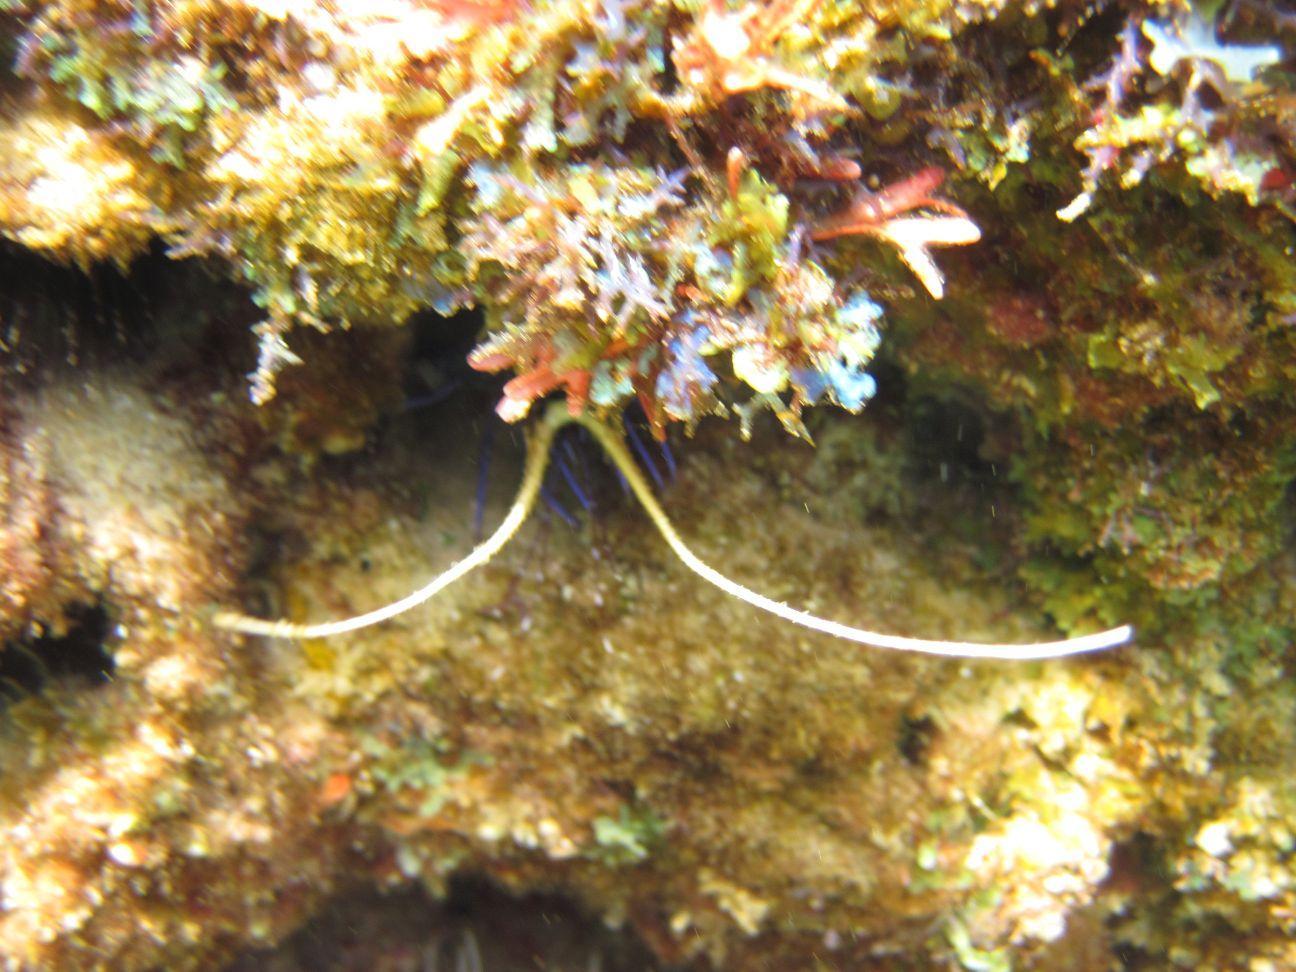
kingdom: Animalia
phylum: Arthropoda
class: Malacostraca
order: Decapoda
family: Palinuridae
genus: Panulirus
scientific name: Panulirus versicolor
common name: Painted spiny lobster
